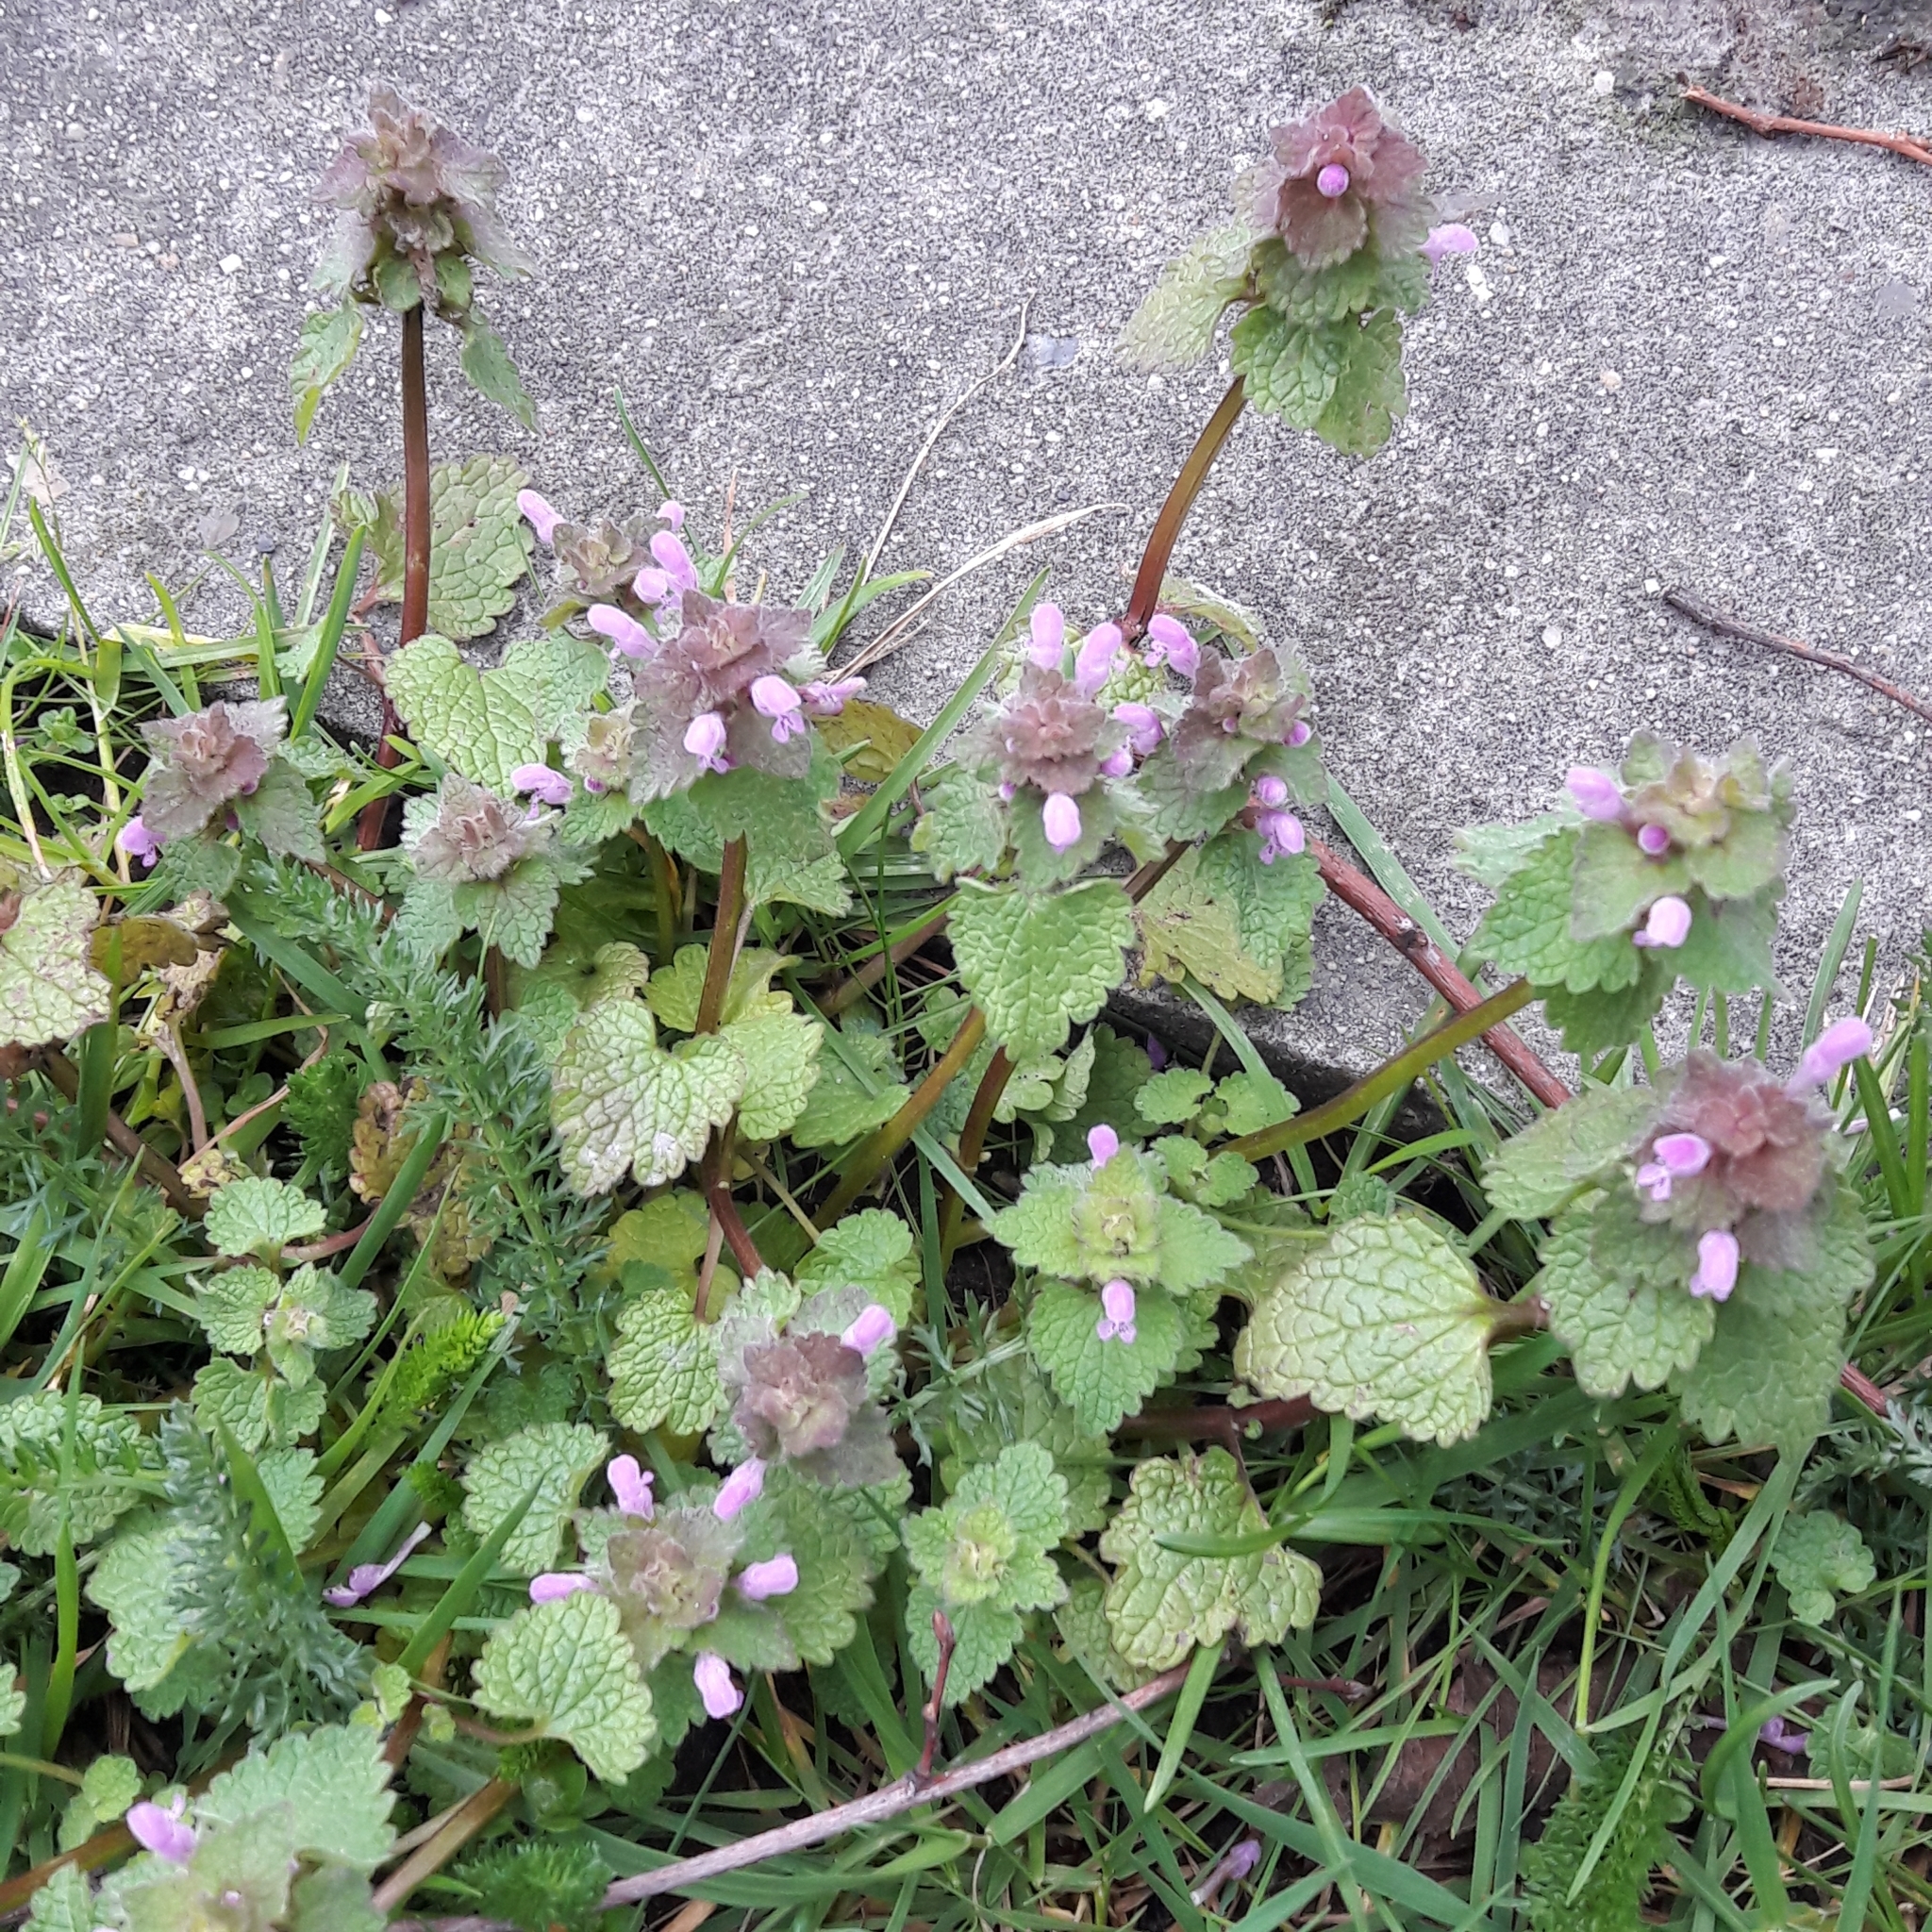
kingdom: Plantae
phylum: Tracheophyta
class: Magnoliopsida
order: Lamiales
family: Lamiaceae
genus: Lamium
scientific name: Lamium purpureum
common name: Red dead-nettle
